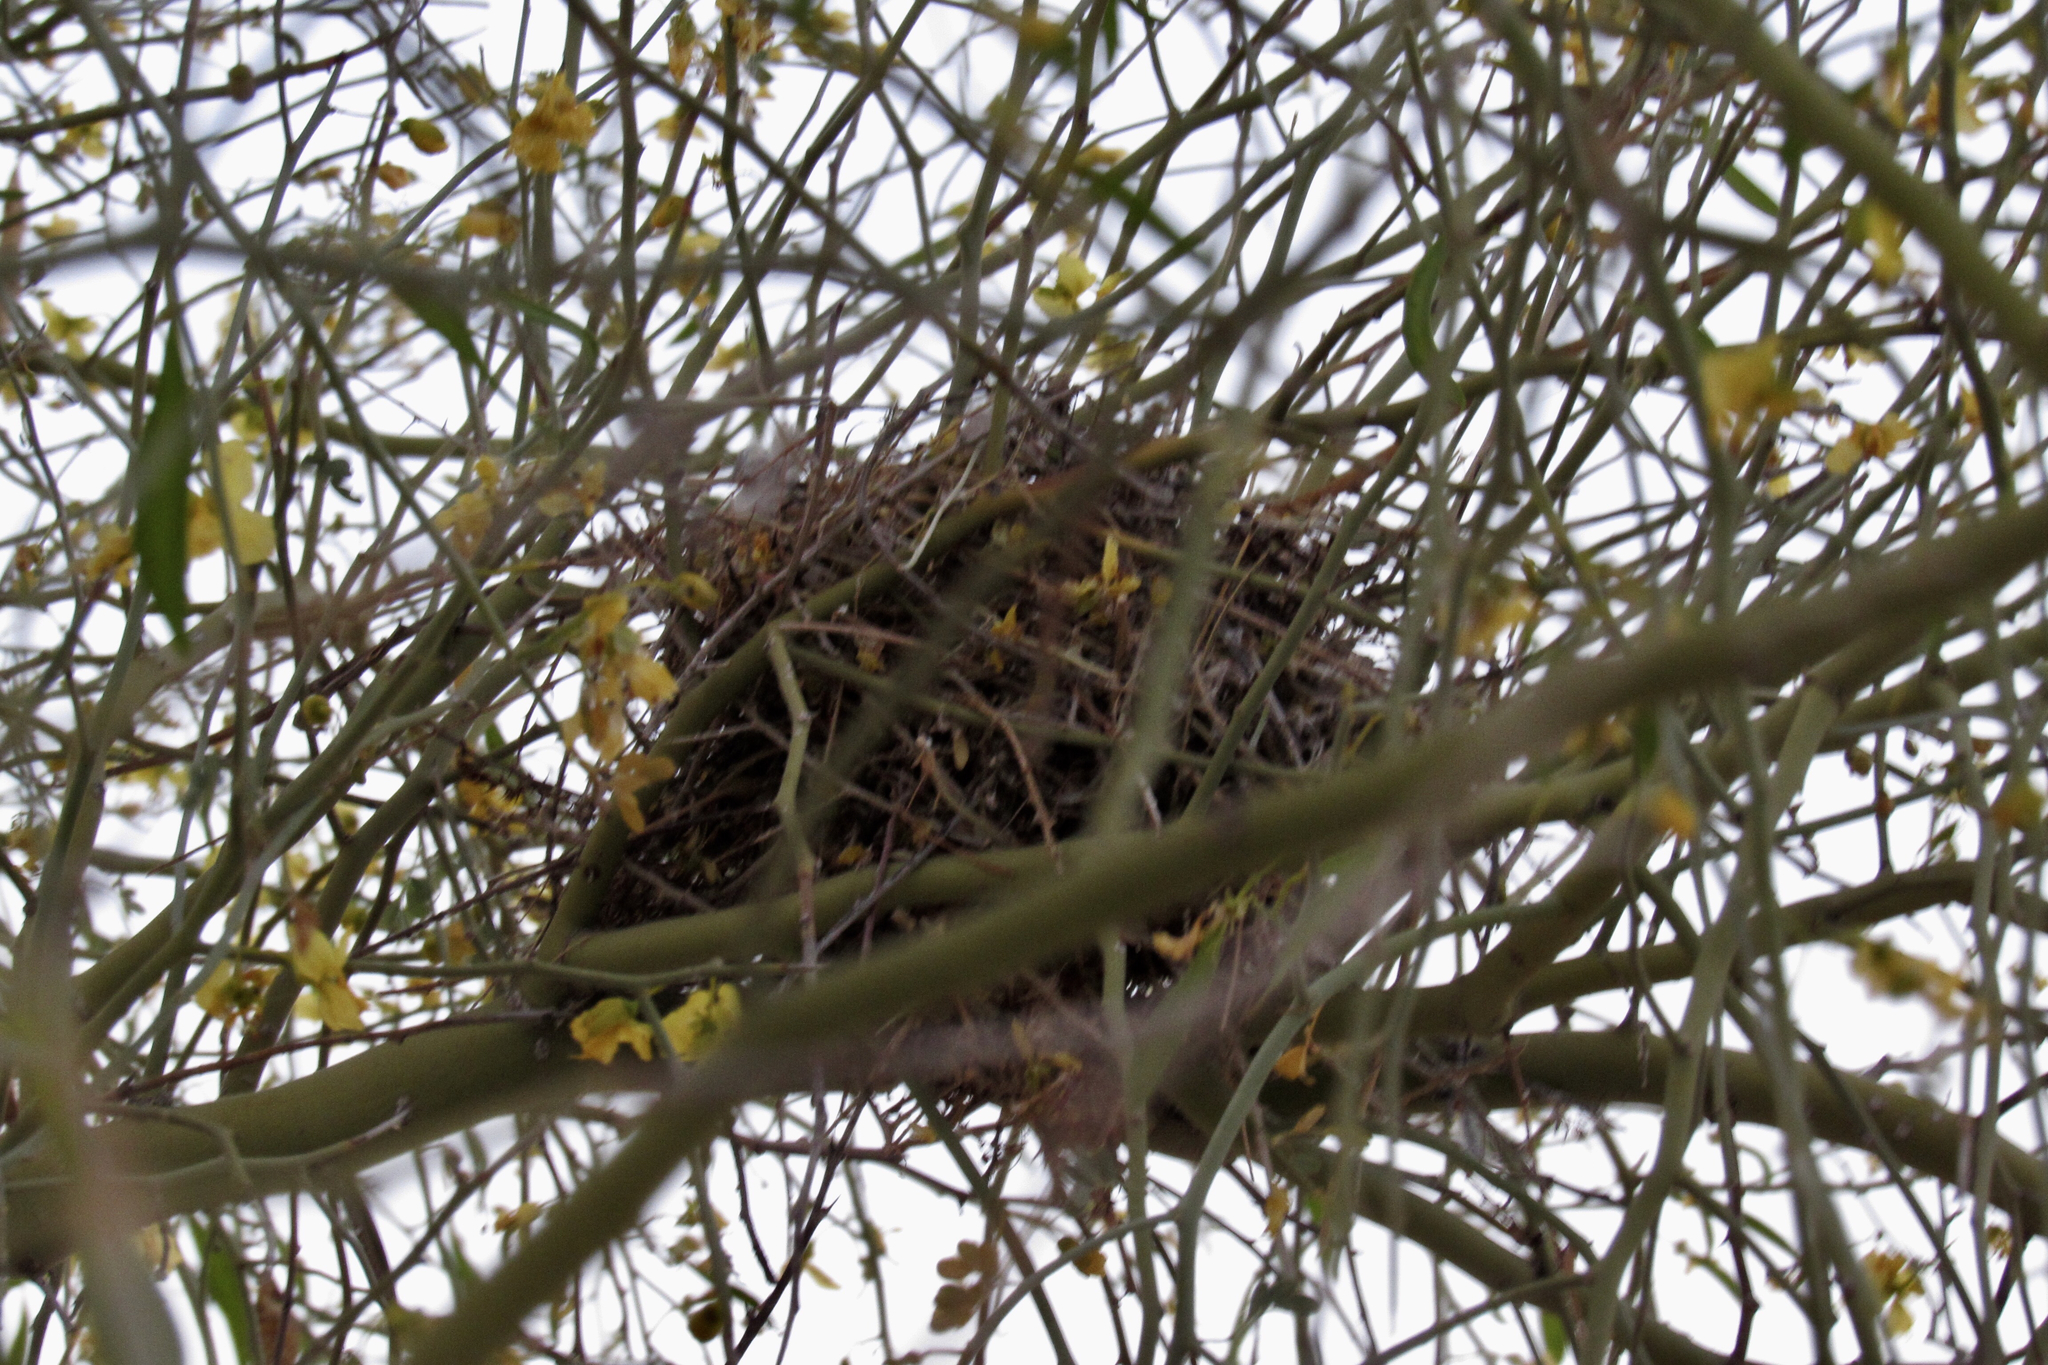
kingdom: Animalia
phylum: Chordata
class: Aves
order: Passeriformes
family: Remizidae
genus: Auriparus
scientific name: Auriparus flaviceps
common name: Verdin
